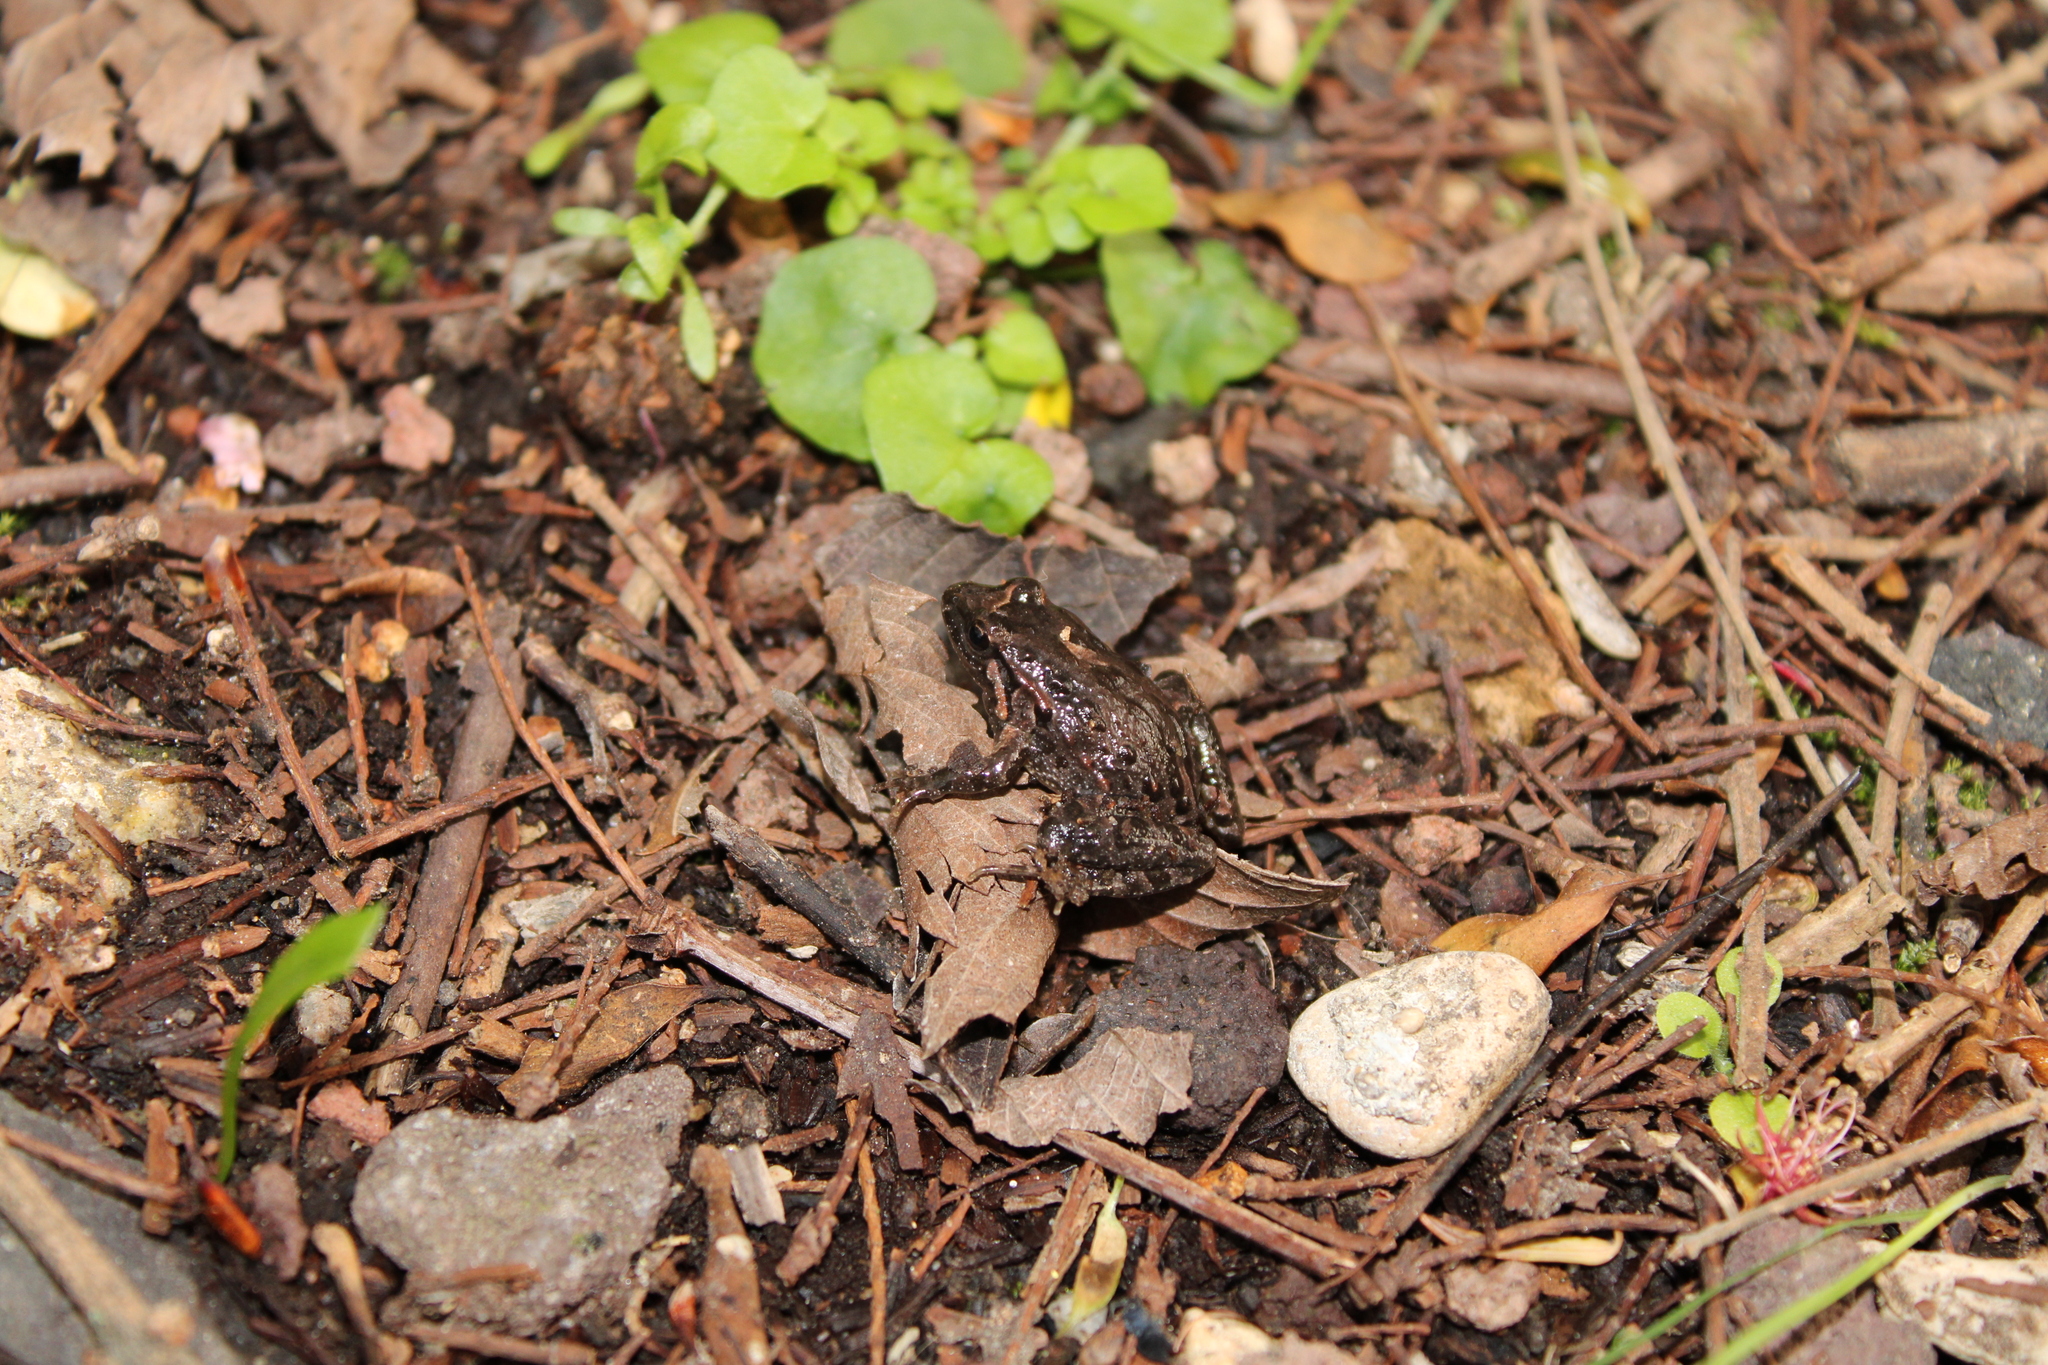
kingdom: Animalia
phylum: Chordata
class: Amphibia
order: Anura
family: Alytidae
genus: Discoglossus
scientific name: Discoglossus pictus
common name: Painted frog
